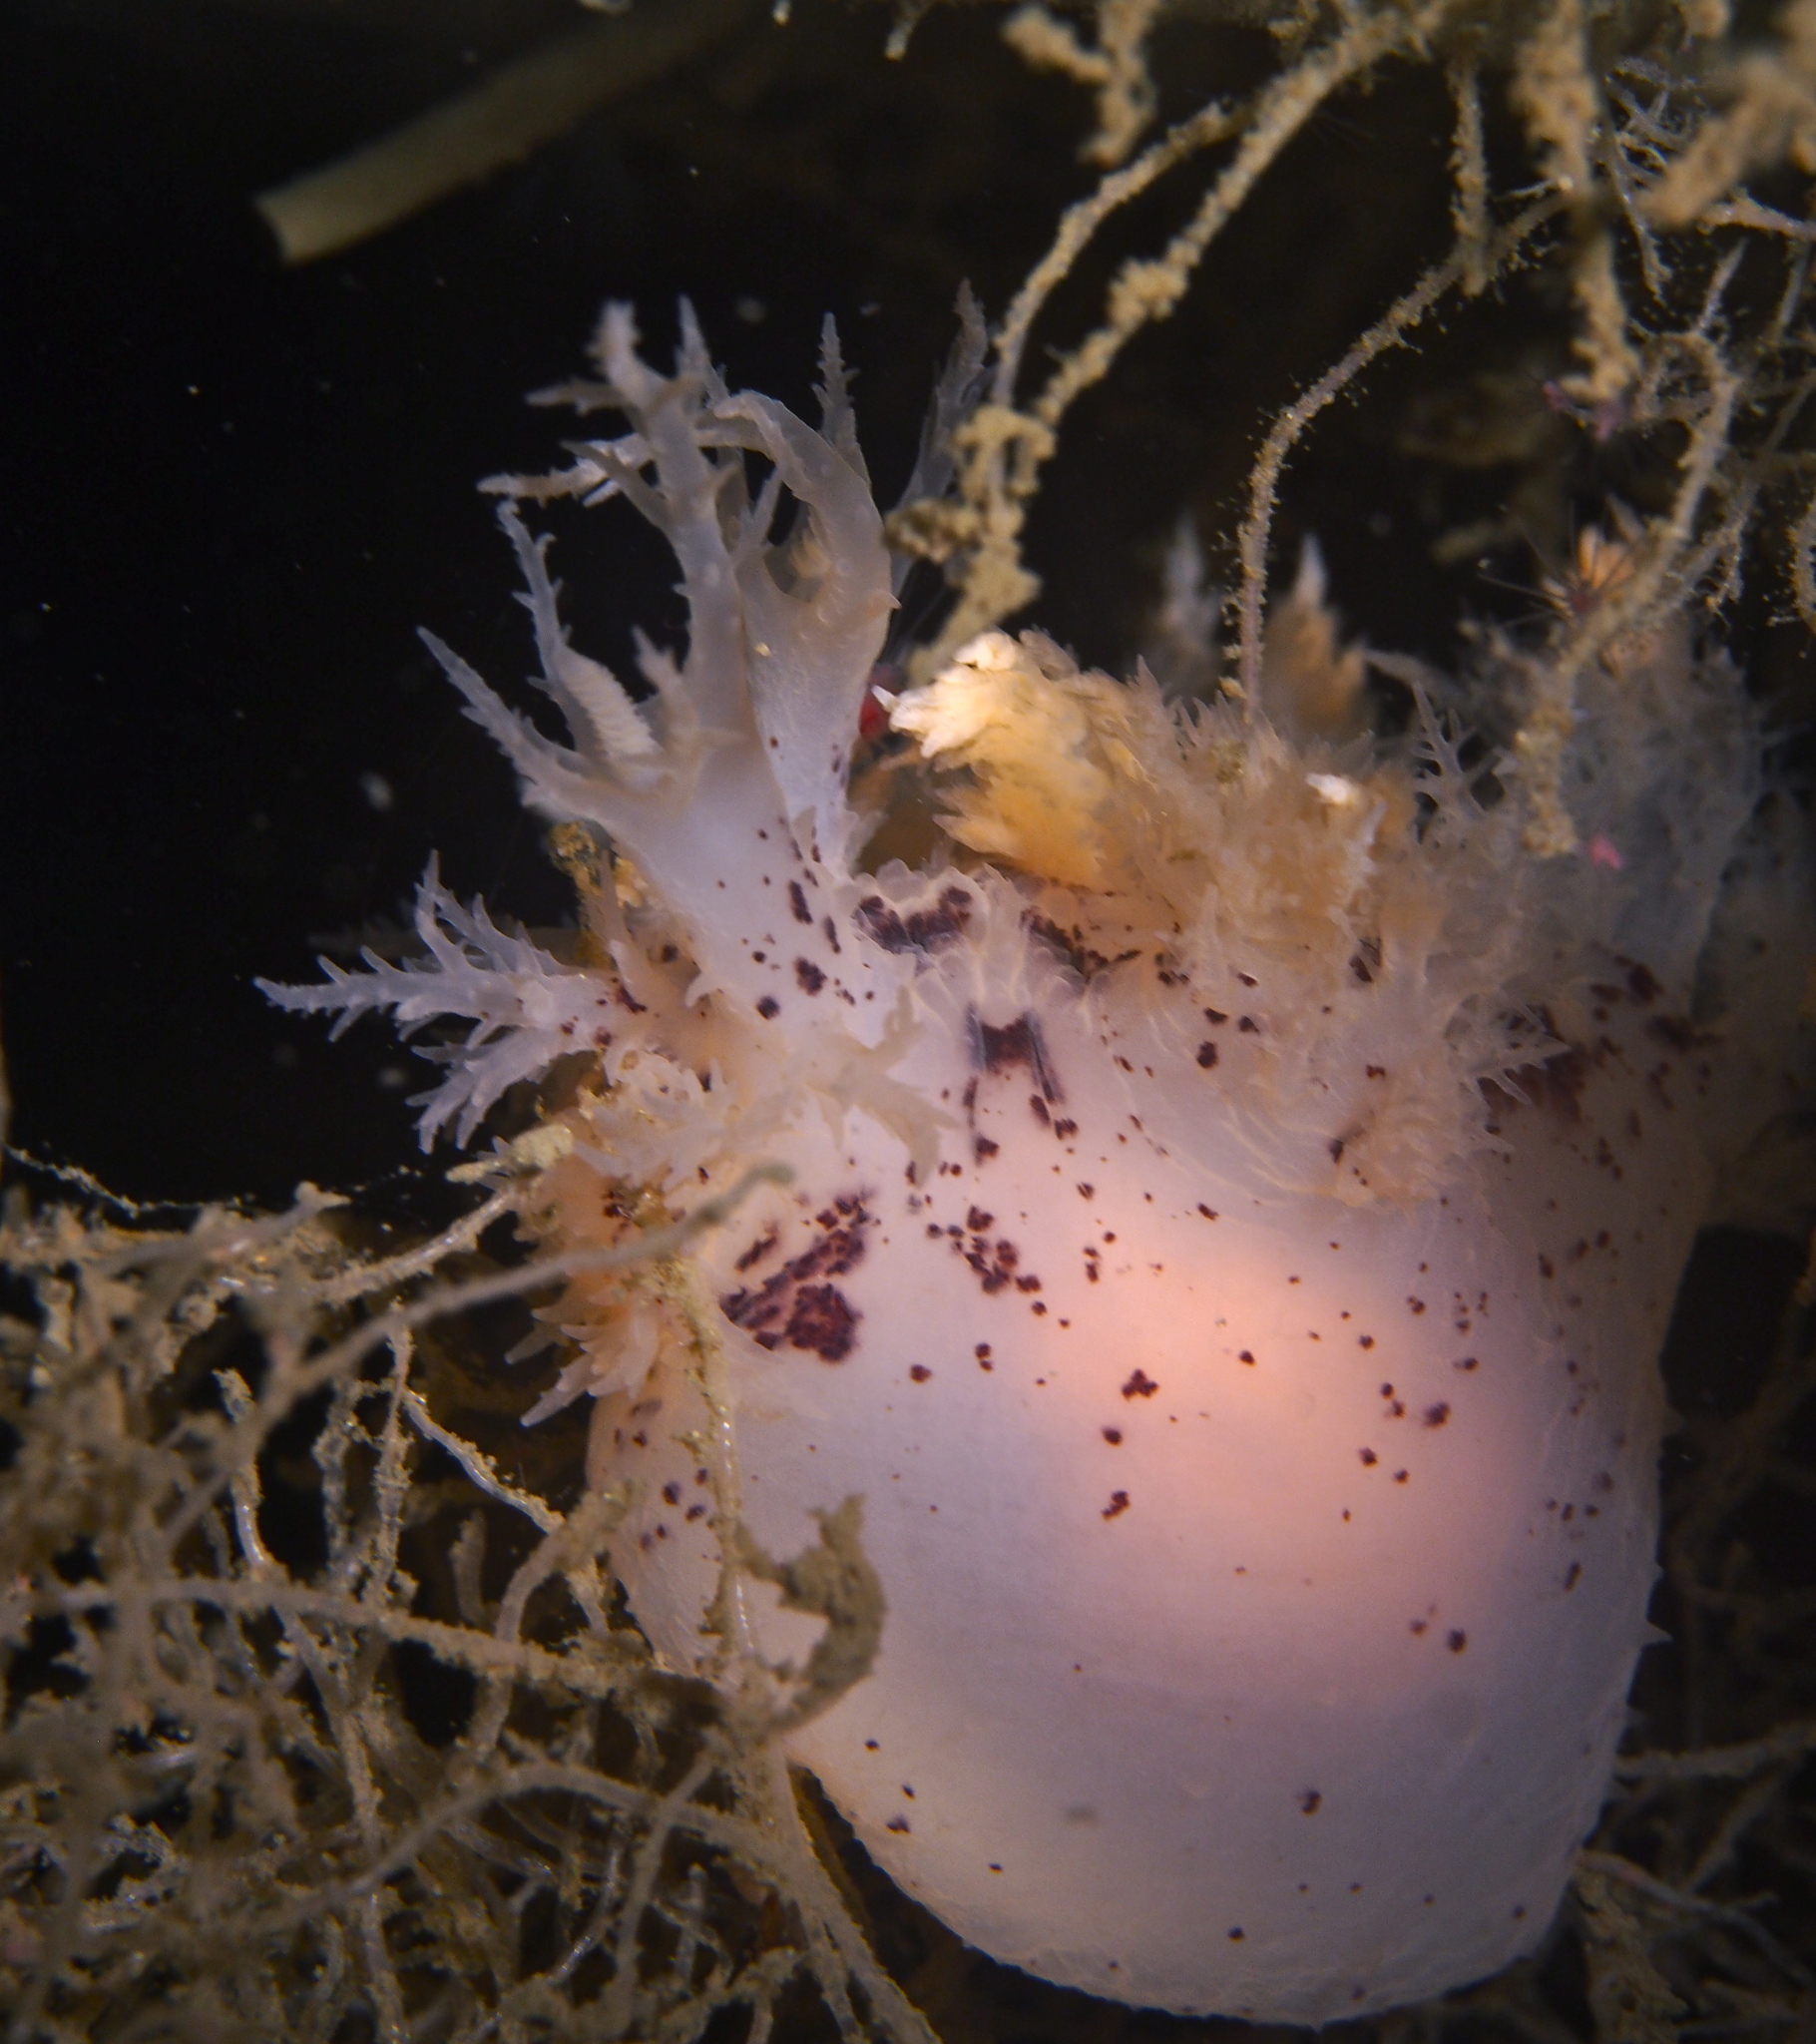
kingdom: Animalia
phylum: Mollusca
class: Gastropoda
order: Nudibranchia
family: Dendronotidae
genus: Dendronotus
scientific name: Dendronotus europaeus
